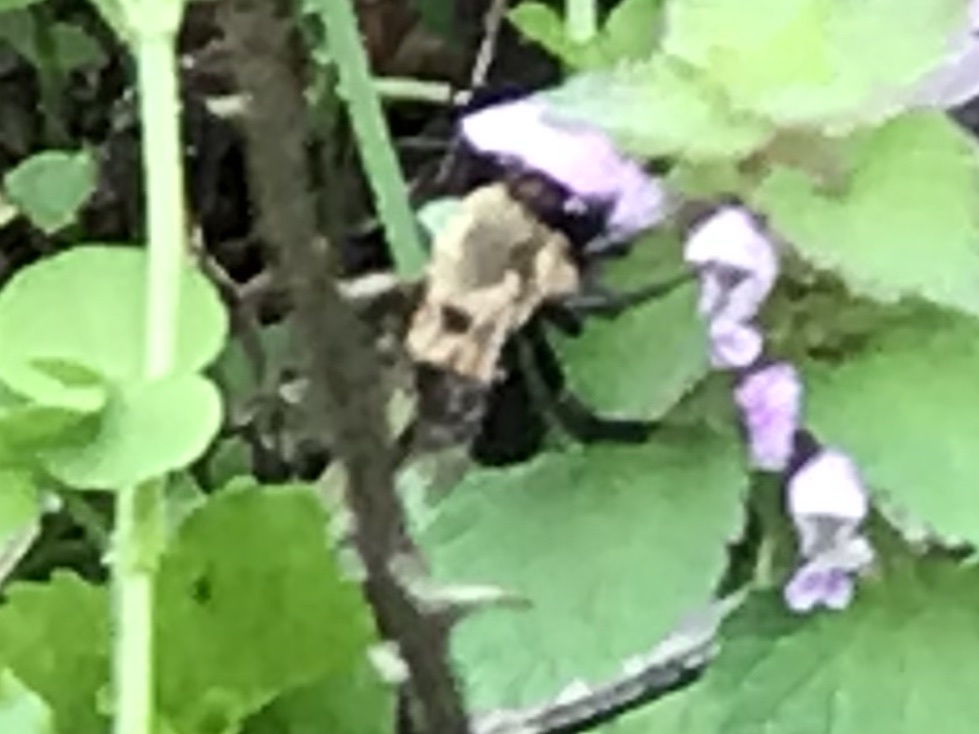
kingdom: Animalia
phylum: Arthropoda
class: Insecta
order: Hymenoptera
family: Apidae
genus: Habropoda
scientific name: Habropoda laboriosa
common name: Southeastern blueberry bee
